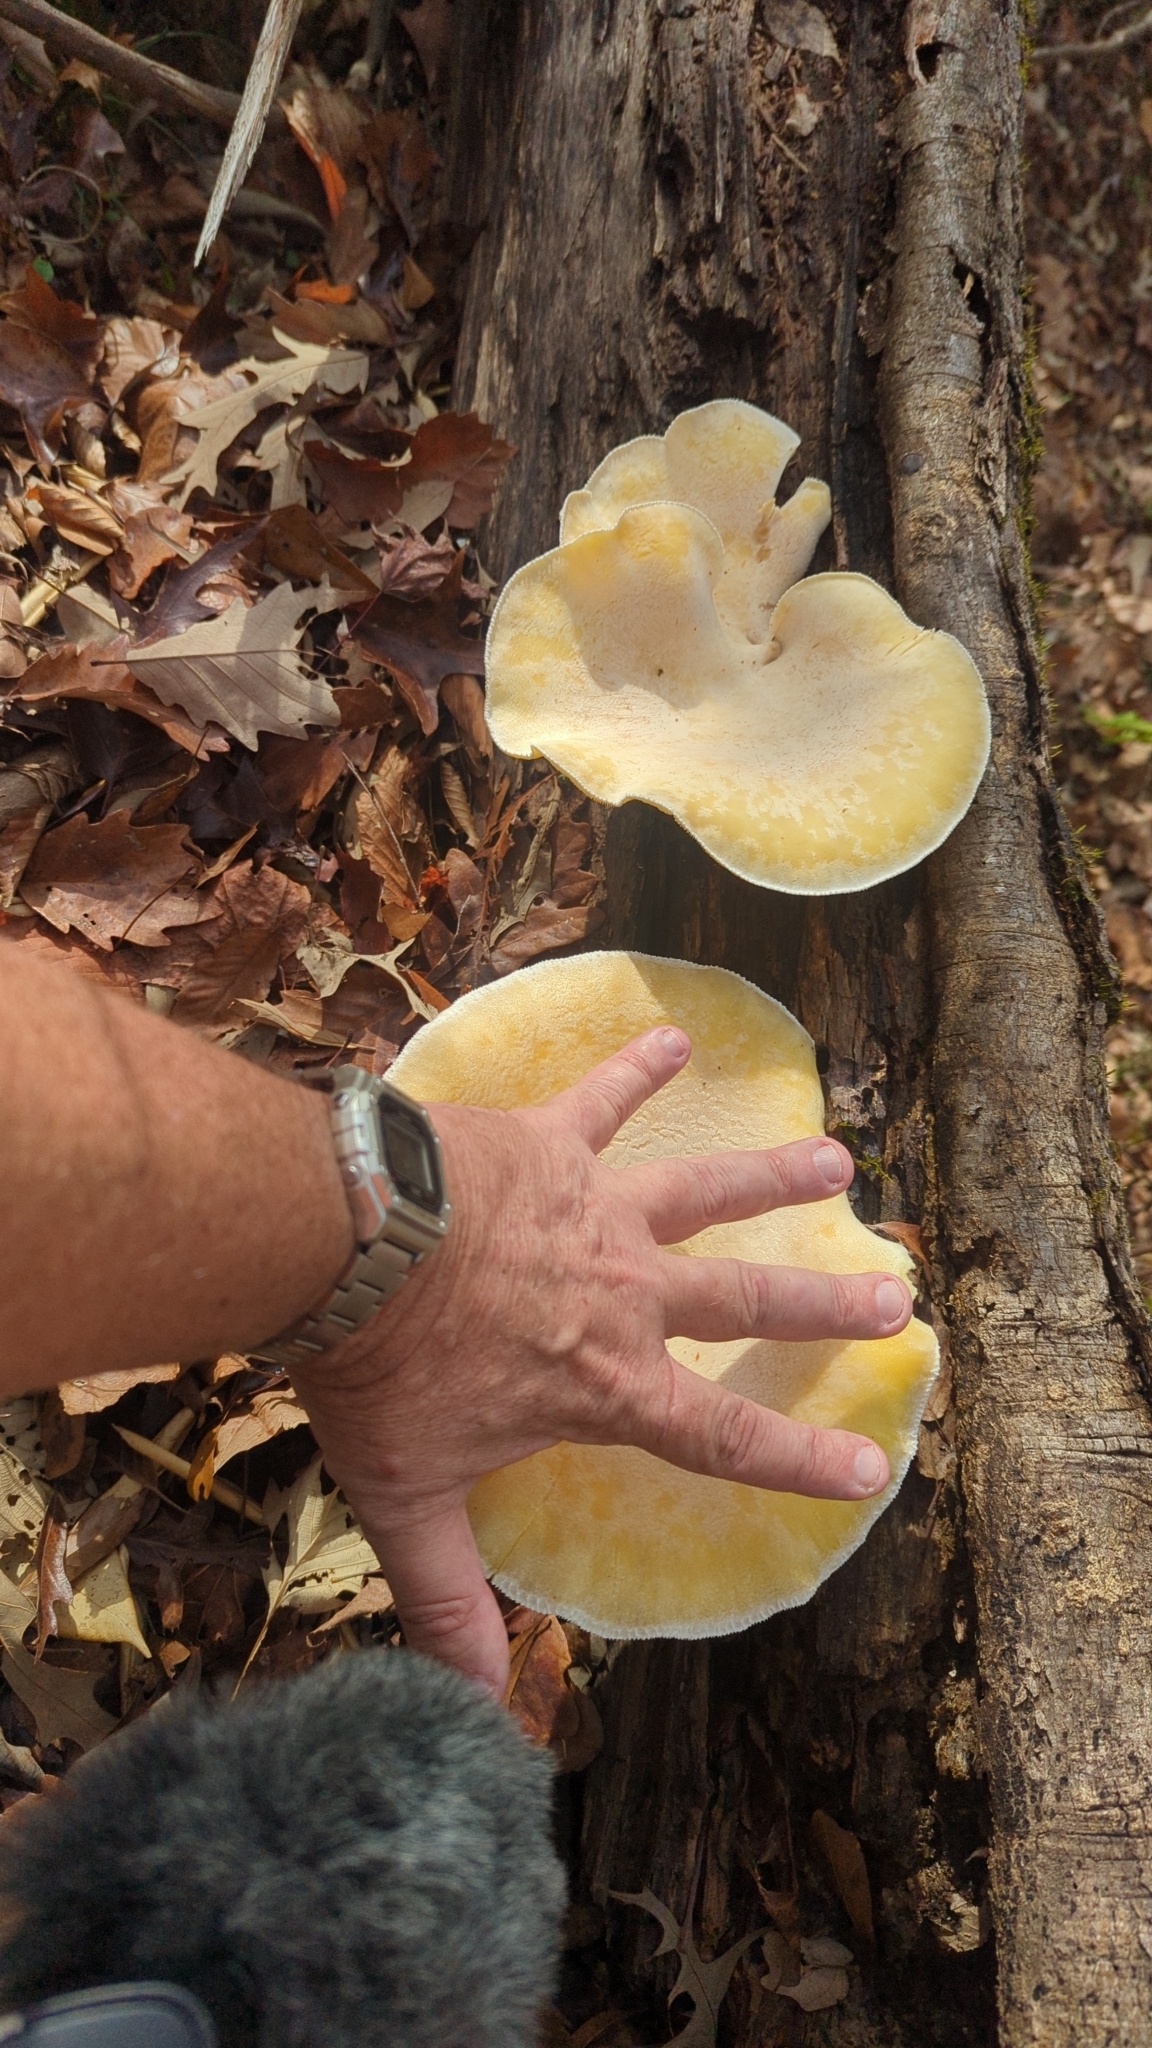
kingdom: Fungi
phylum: Basidiomycota
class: Agaricomycetes
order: Polyporales
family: Polyporaceae
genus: Lentinus
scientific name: Lentinus levis
